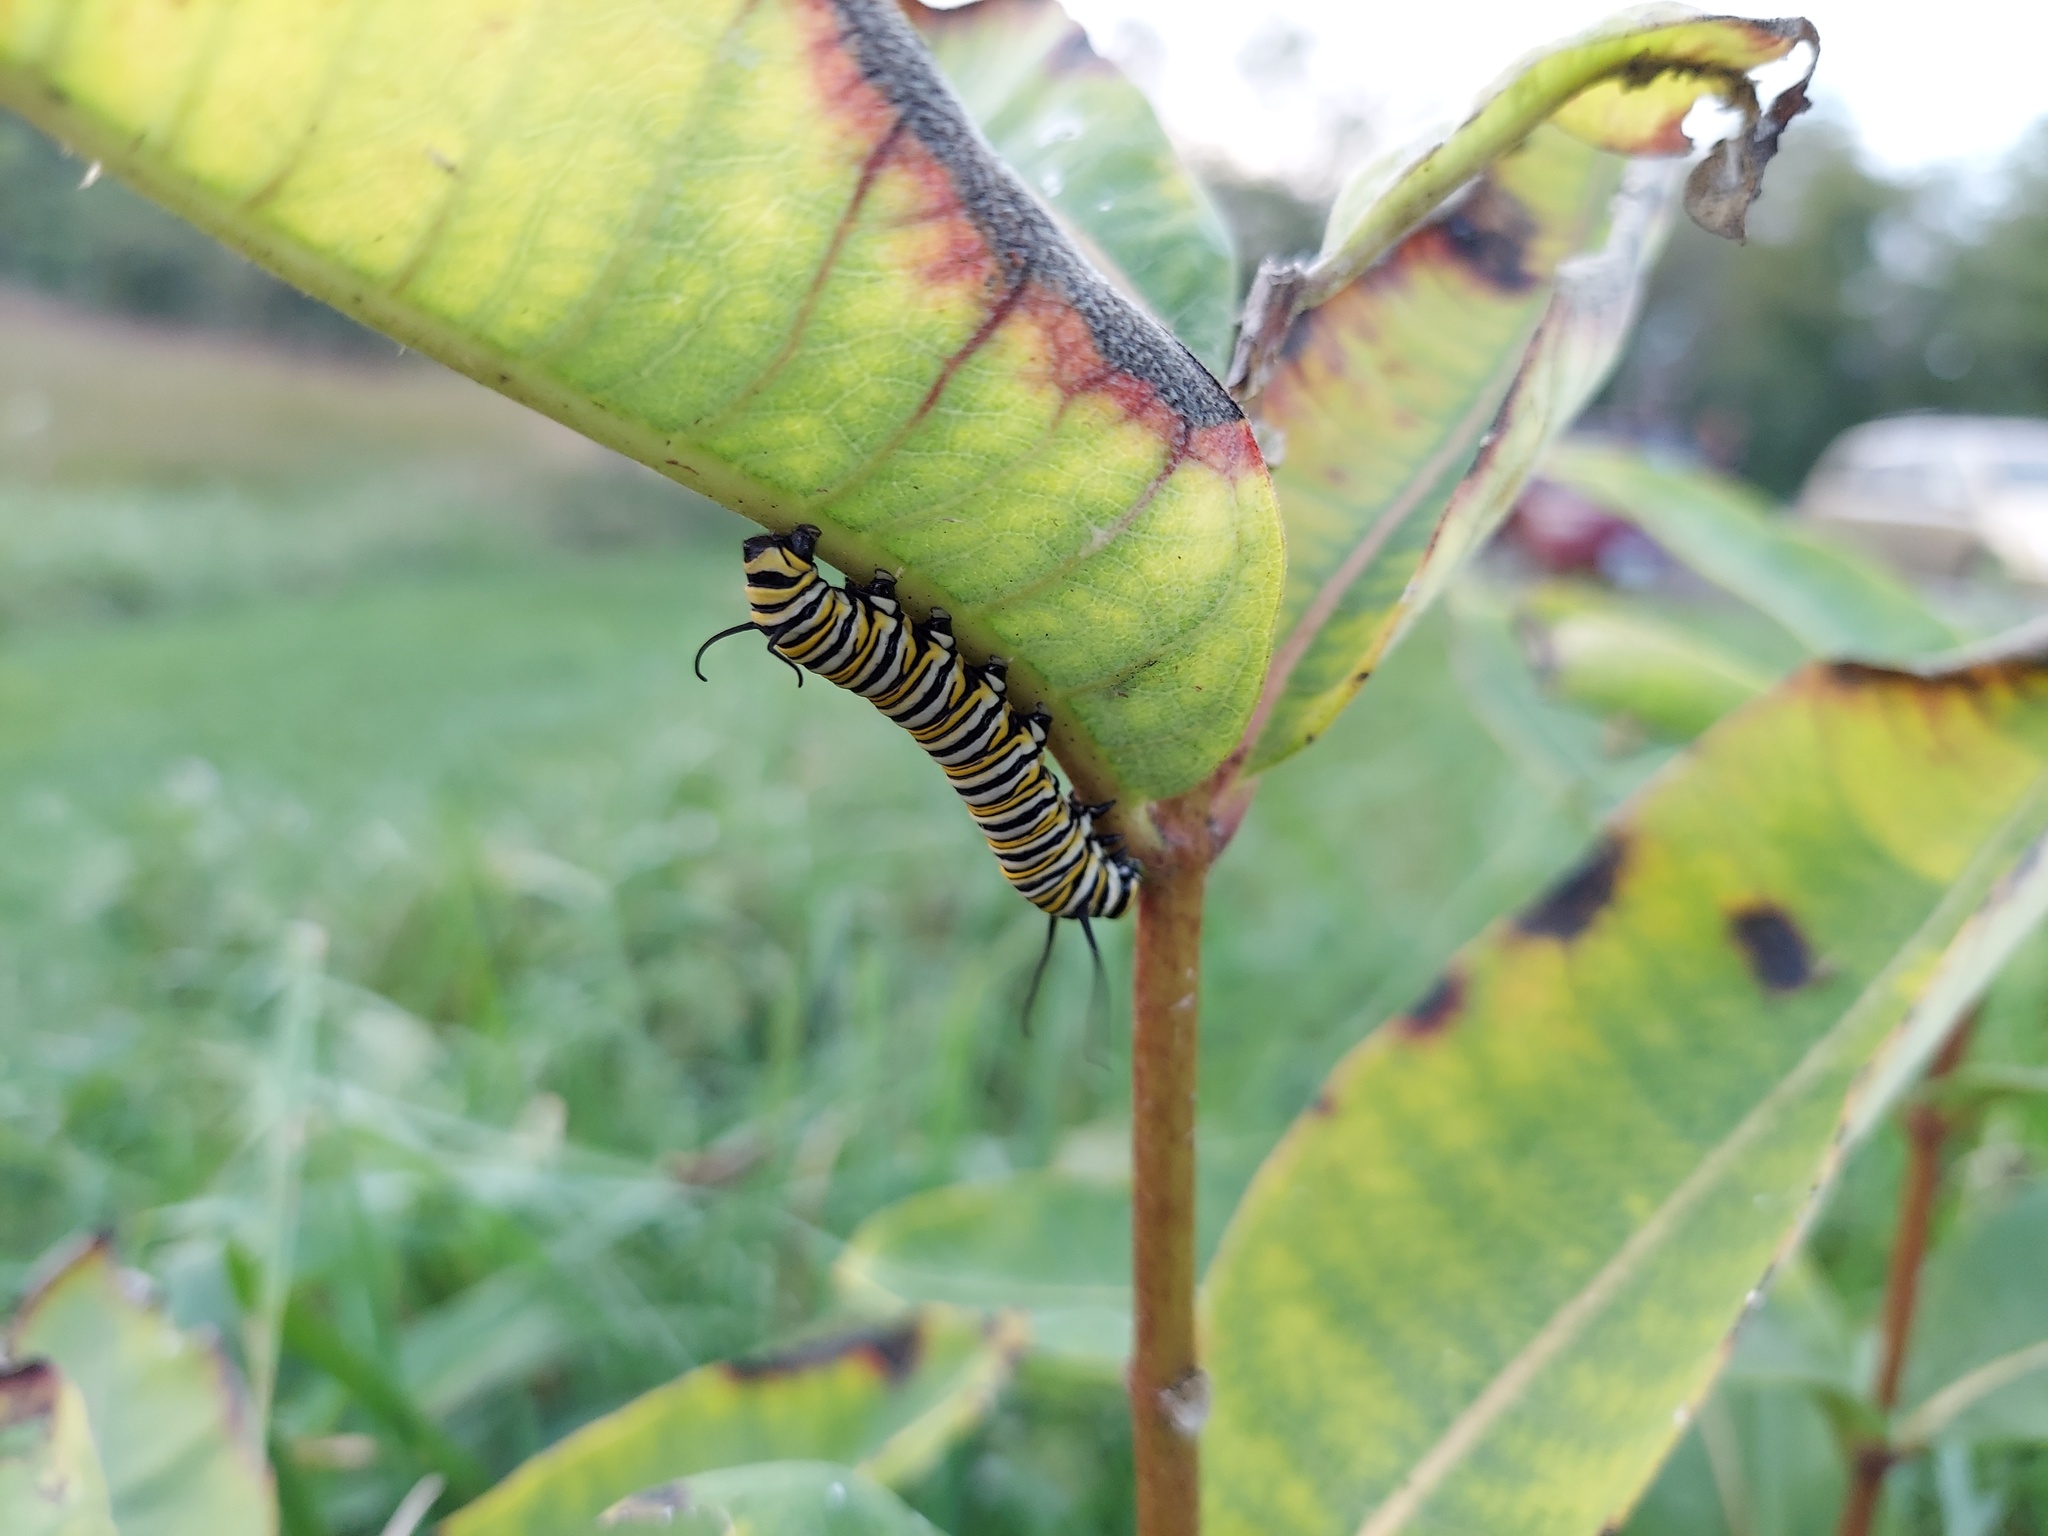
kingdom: Animalia
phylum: Arthropoda
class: Insecta
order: Lepidoptera
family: Nymphalidae
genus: Danaus
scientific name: Danaus plexippus
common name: Monarch
